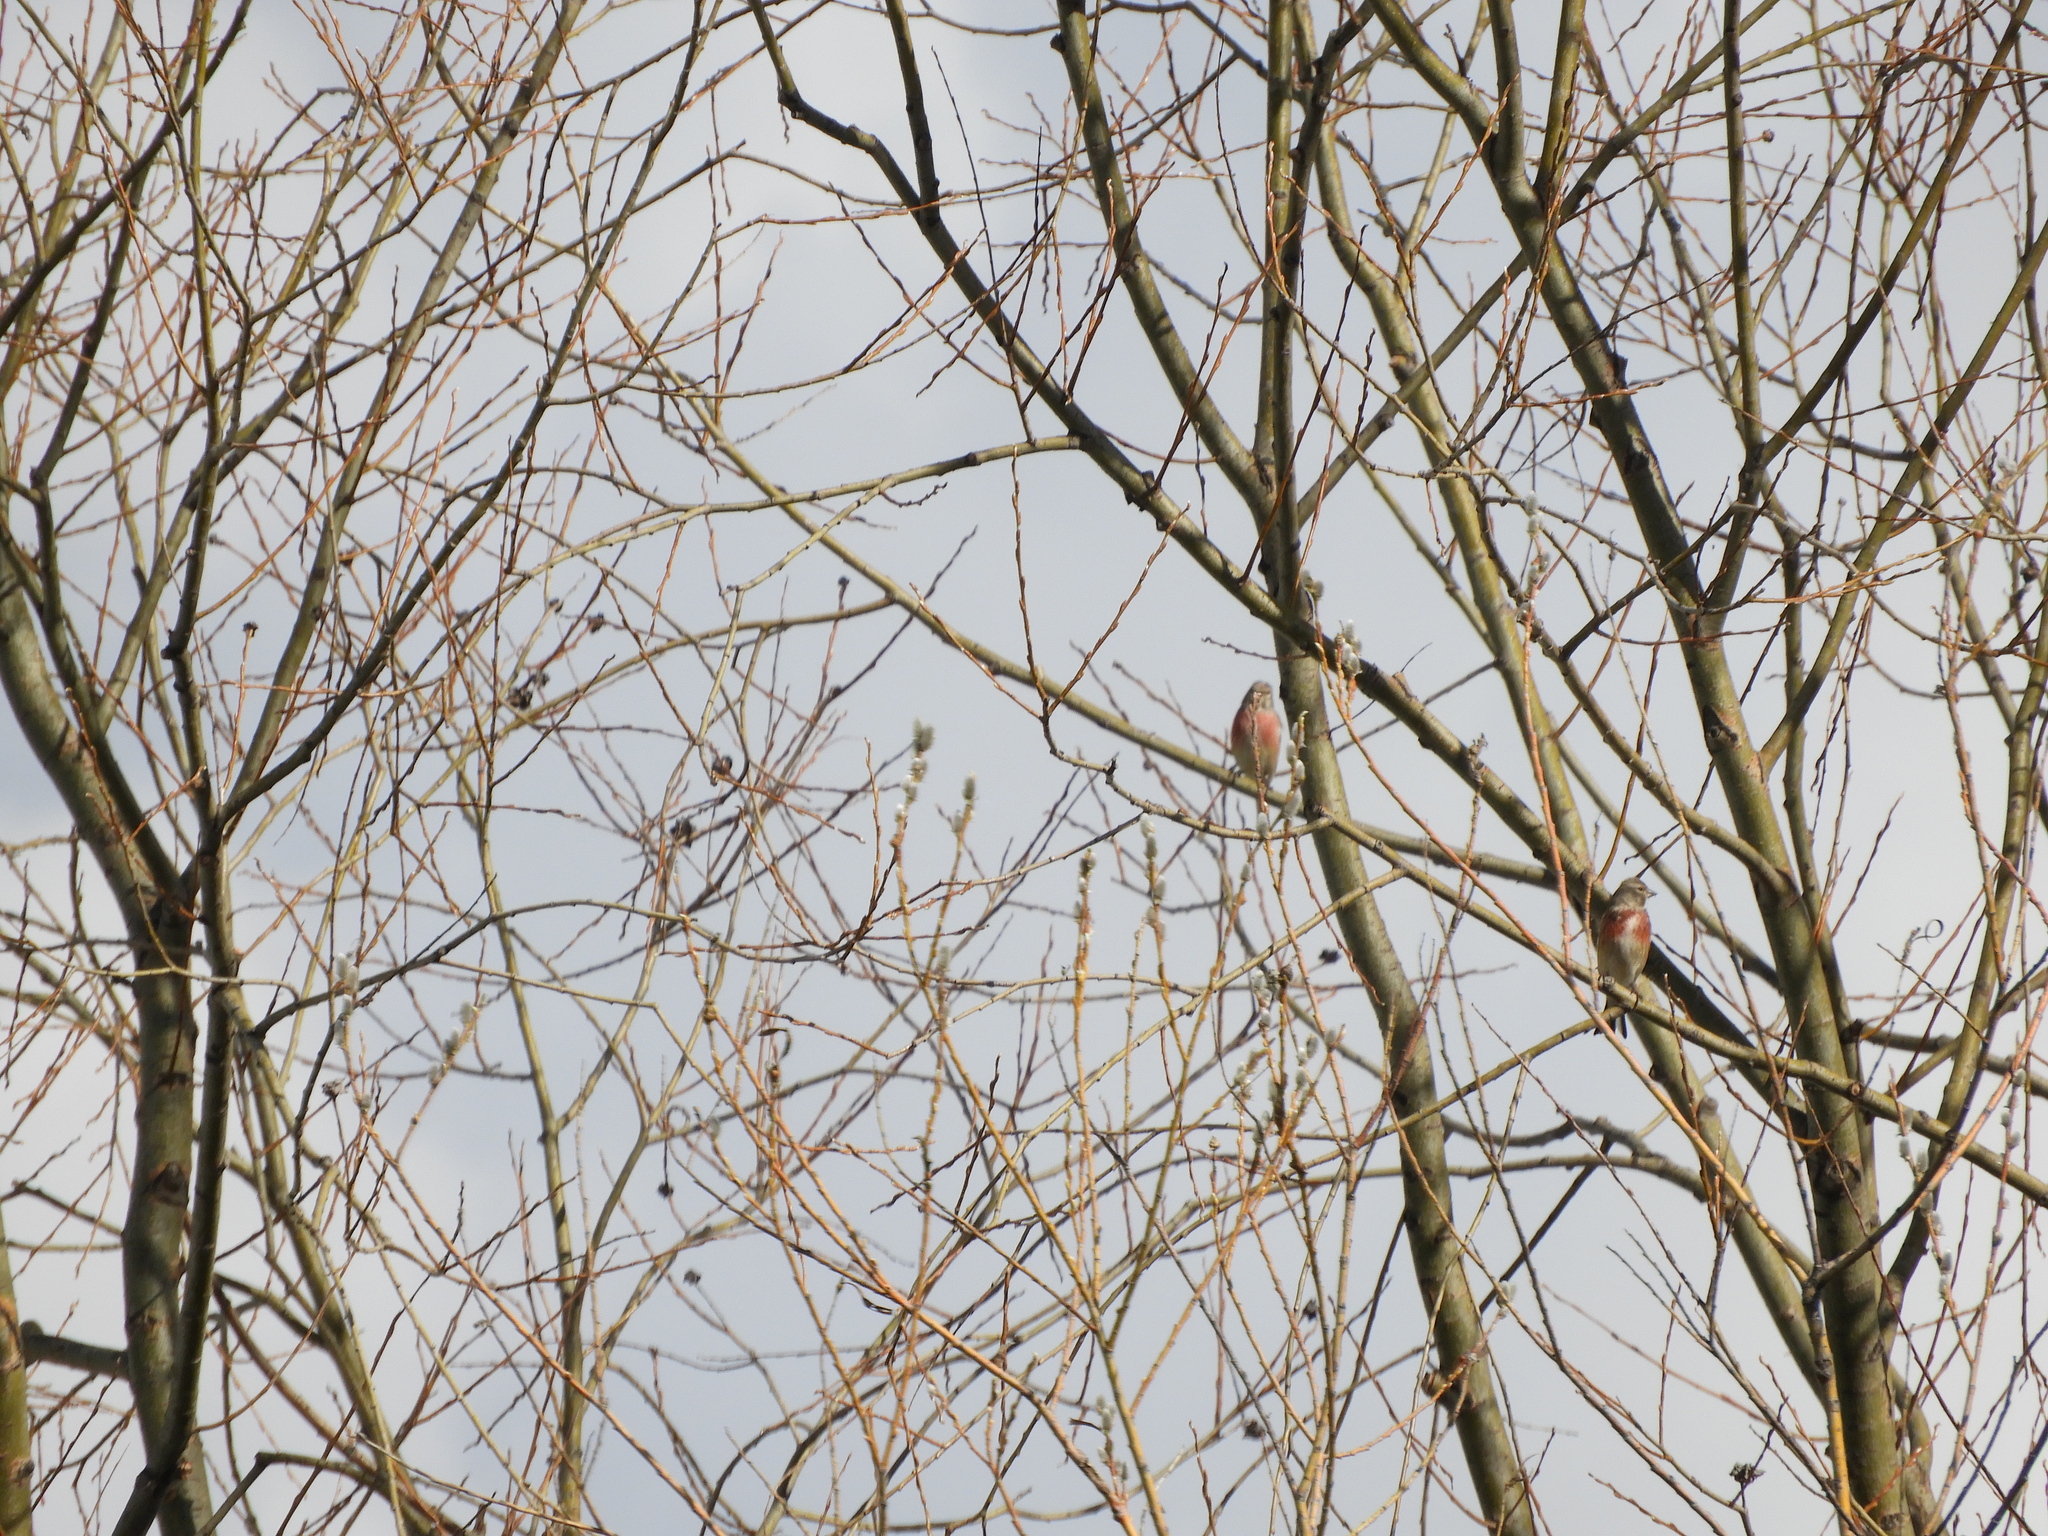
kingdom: Animalia
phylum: Chordata
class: Aves
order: Passeriformes
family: Fringillidae
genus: Linaria
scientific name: Linaria cannabina
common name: Common linnet
